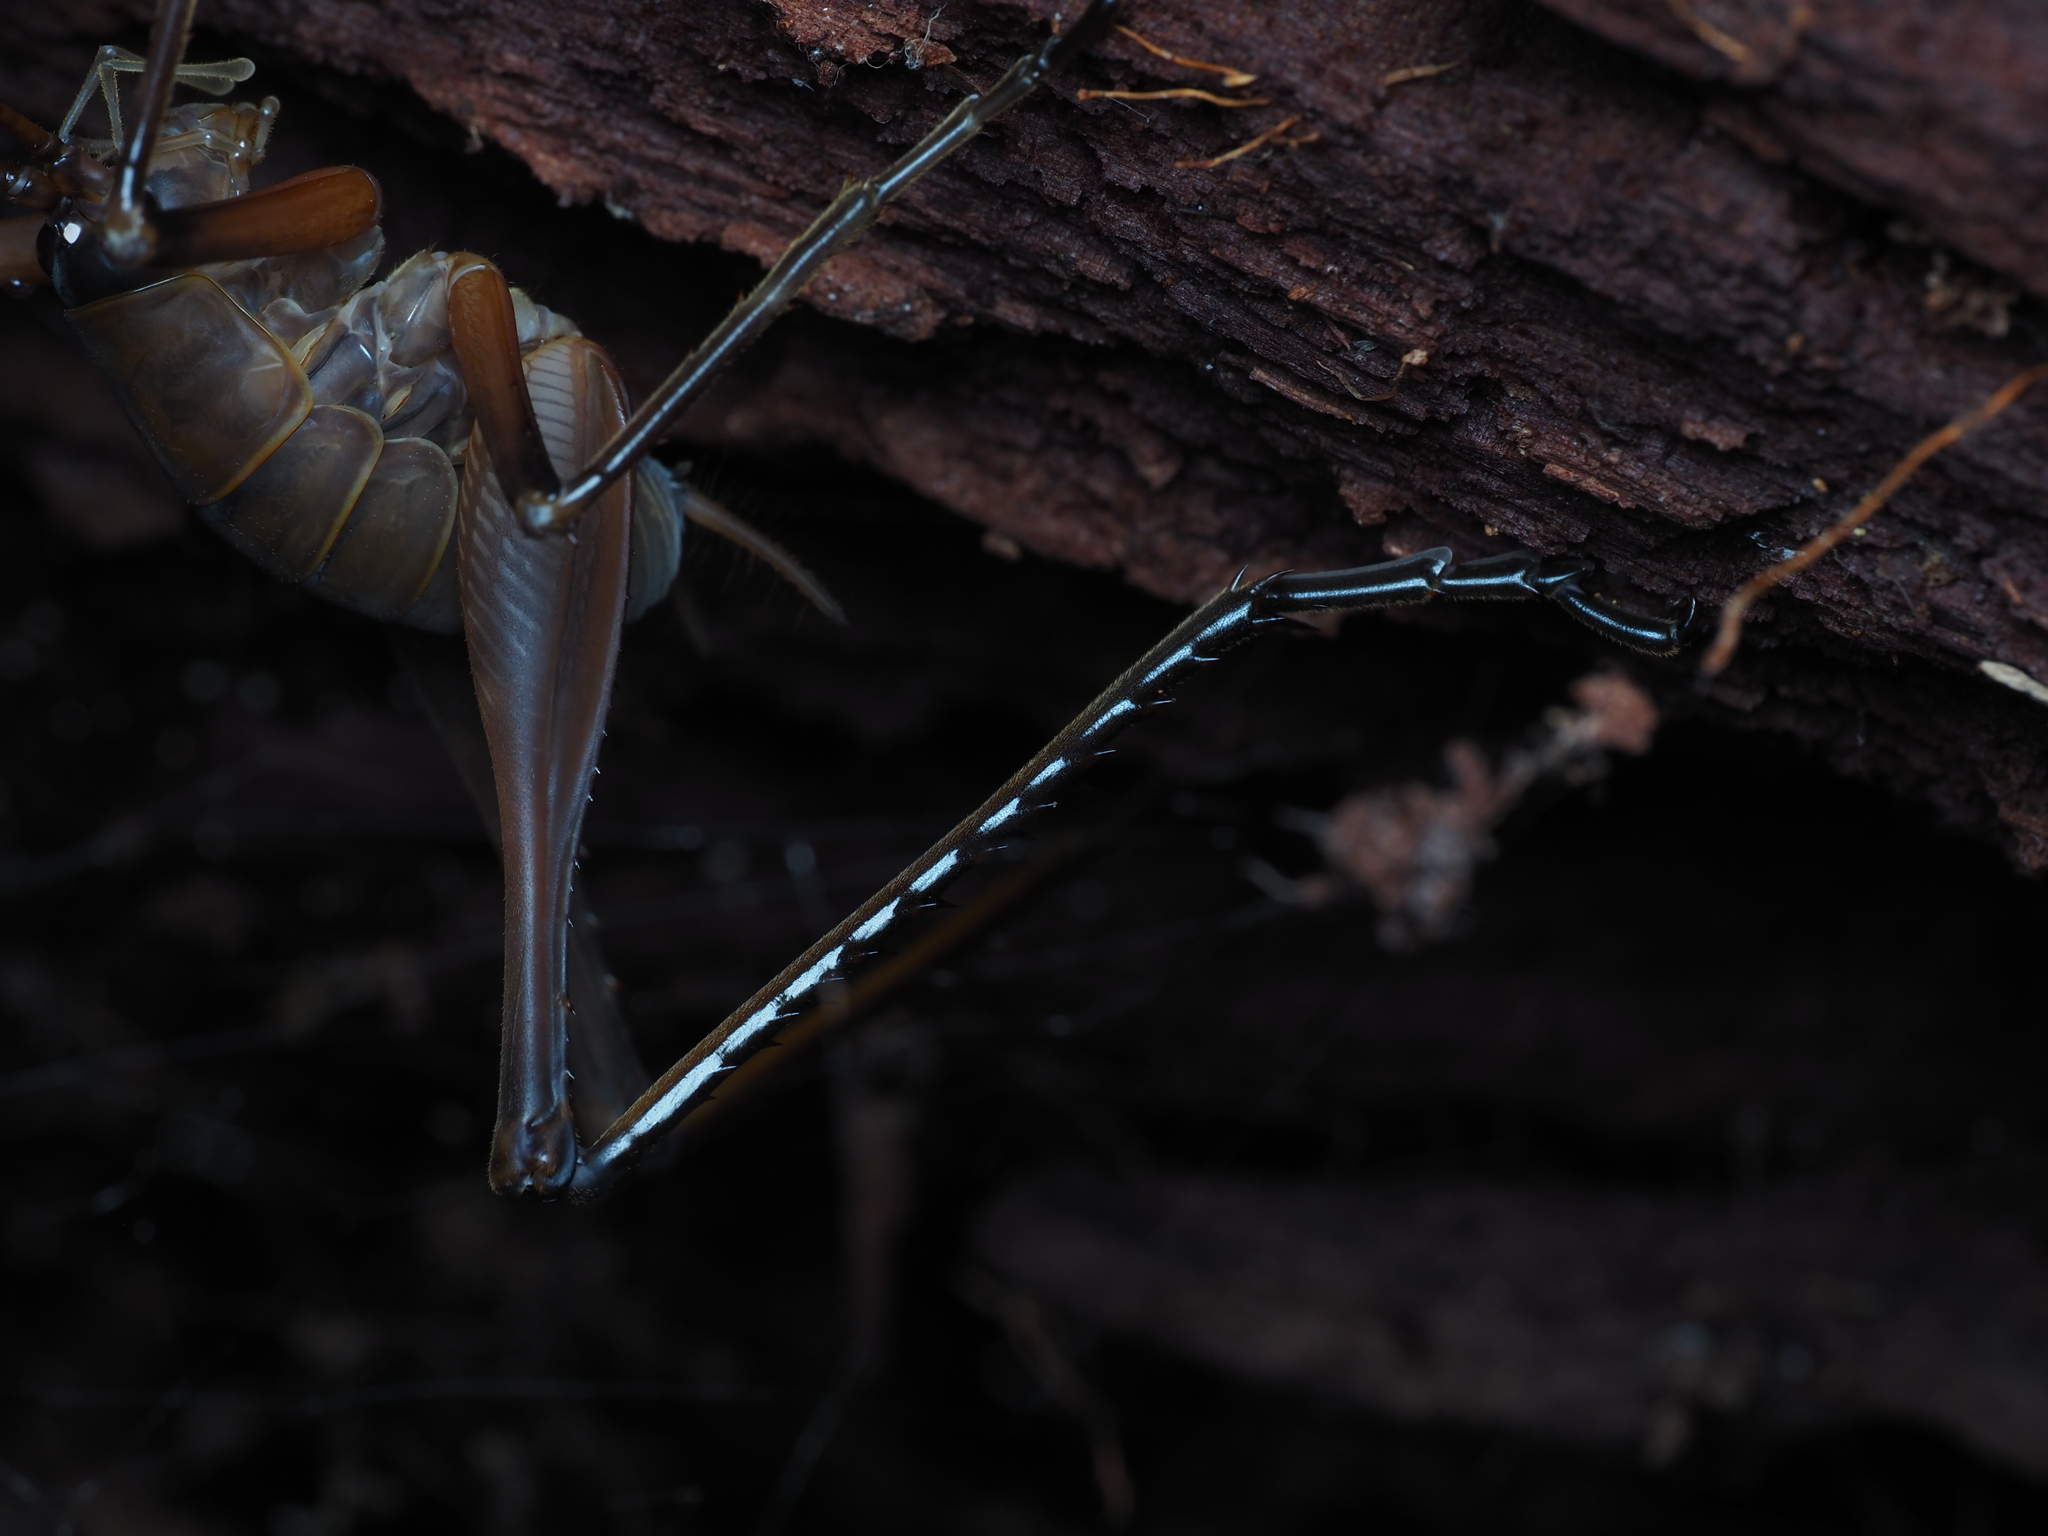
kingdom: Animalia
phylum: Arthropoda
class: Insecta
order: Orthoptera
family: Rhaphidophoridae
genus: Pachyrhamma
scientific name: Pachyrhamma longipes
